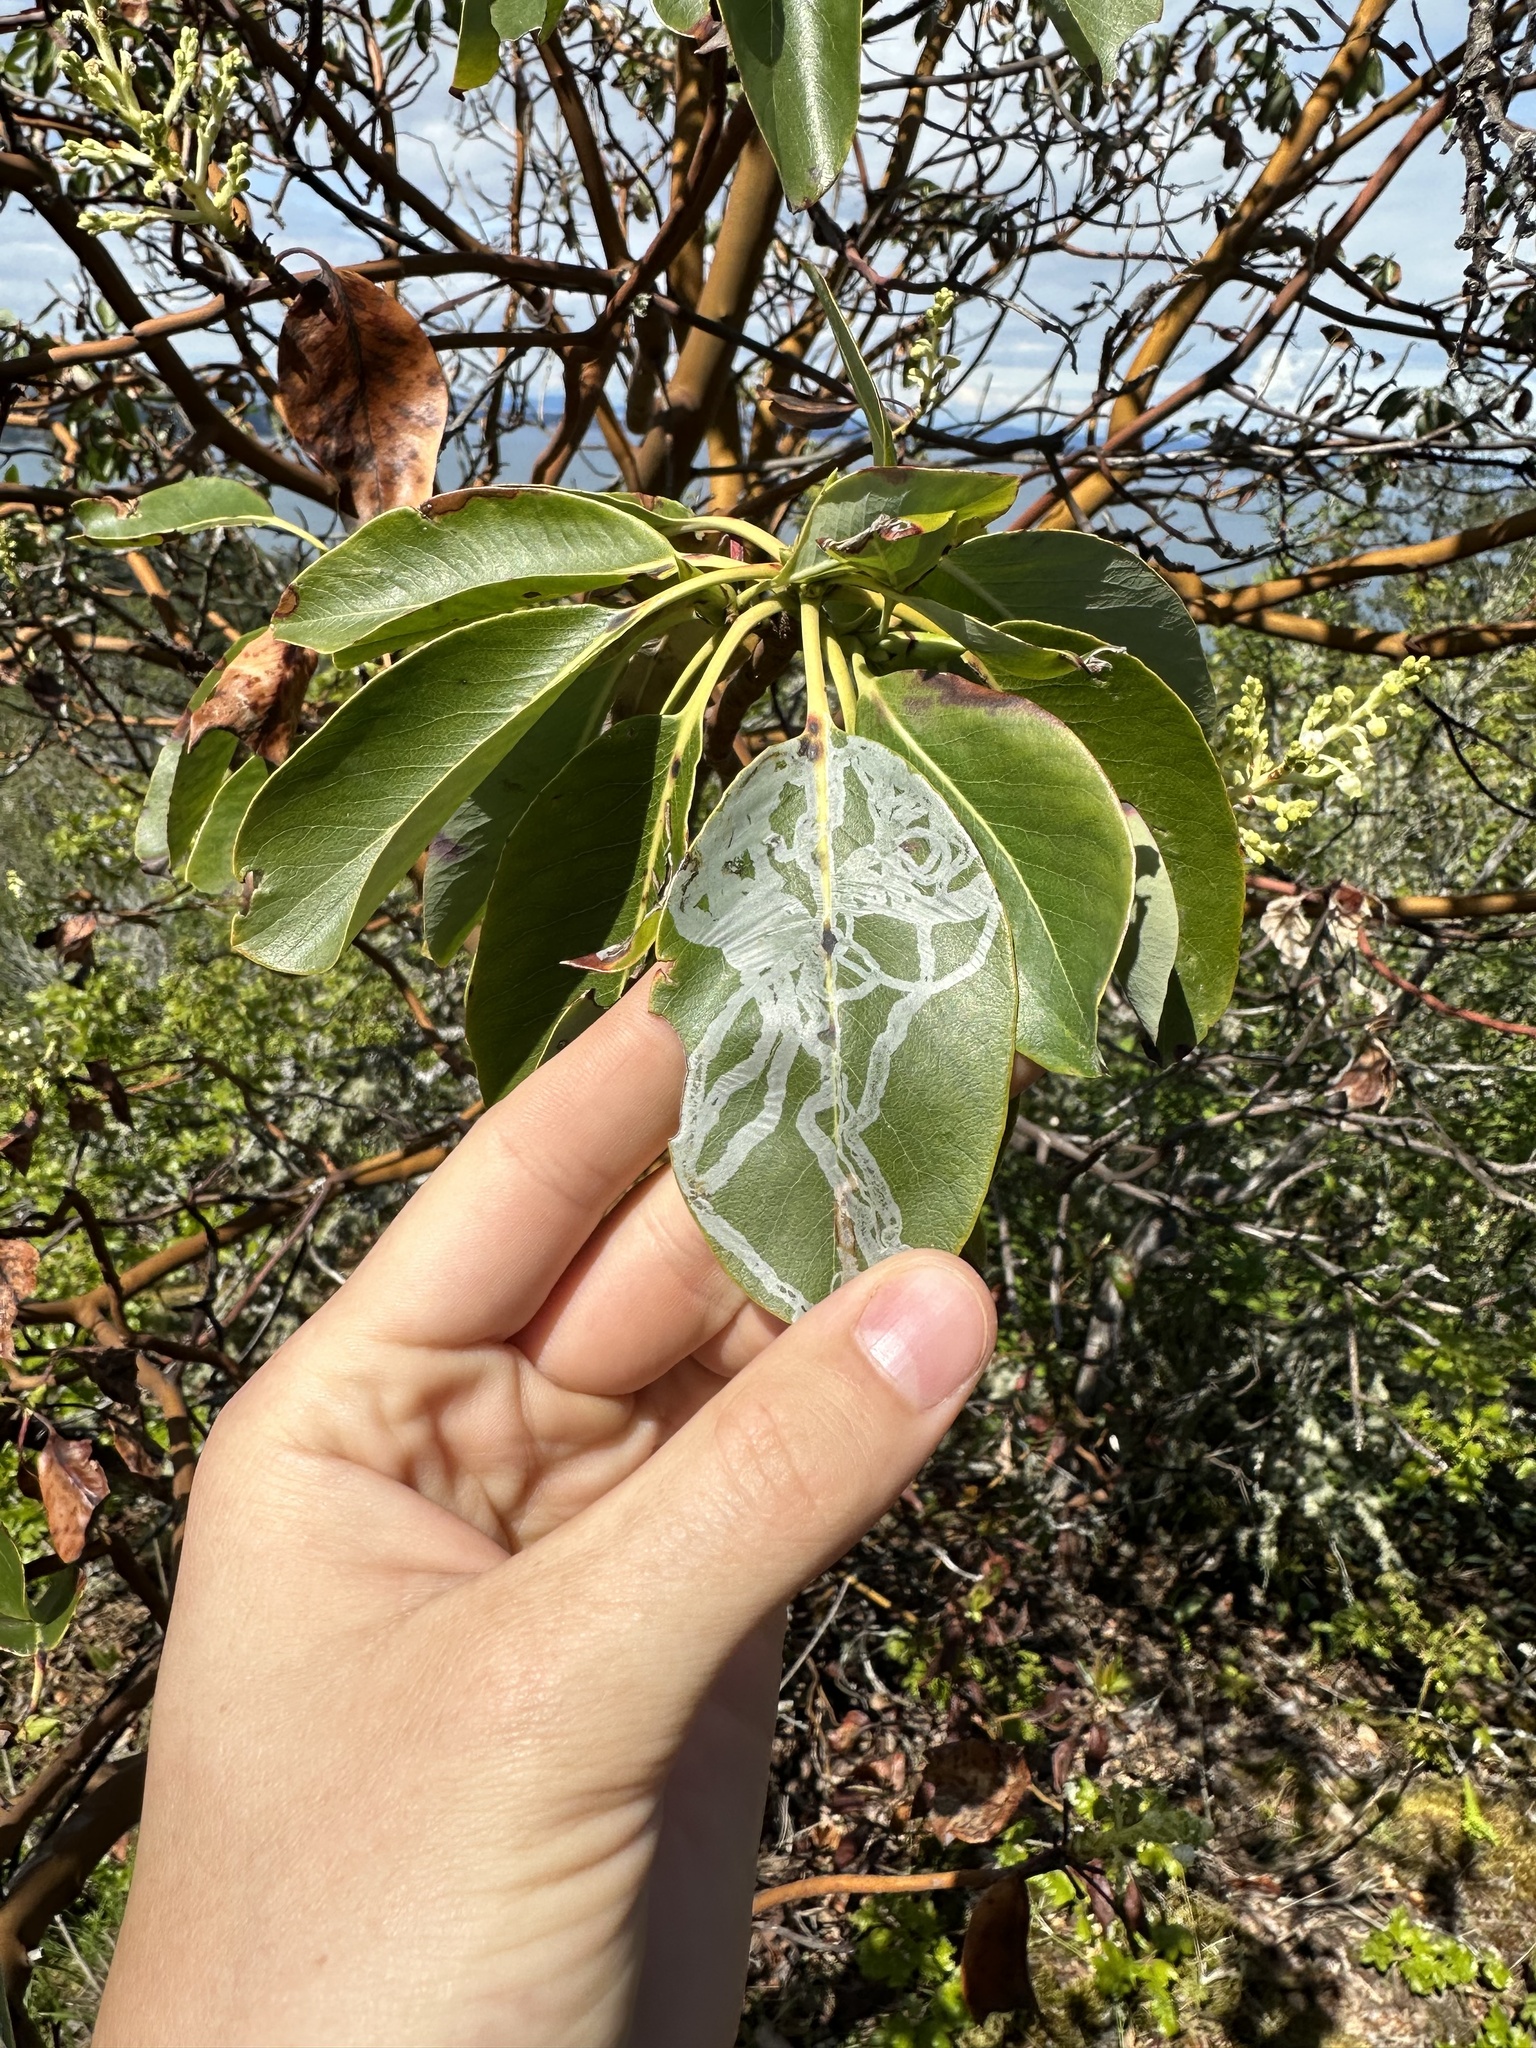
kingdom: Plantae
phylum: Tracheophyta
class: Magnoliopsida
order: Ericales
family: Ericaceae
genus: Arbutus
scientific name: Arbutus menziesii
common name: Pacific madrone
